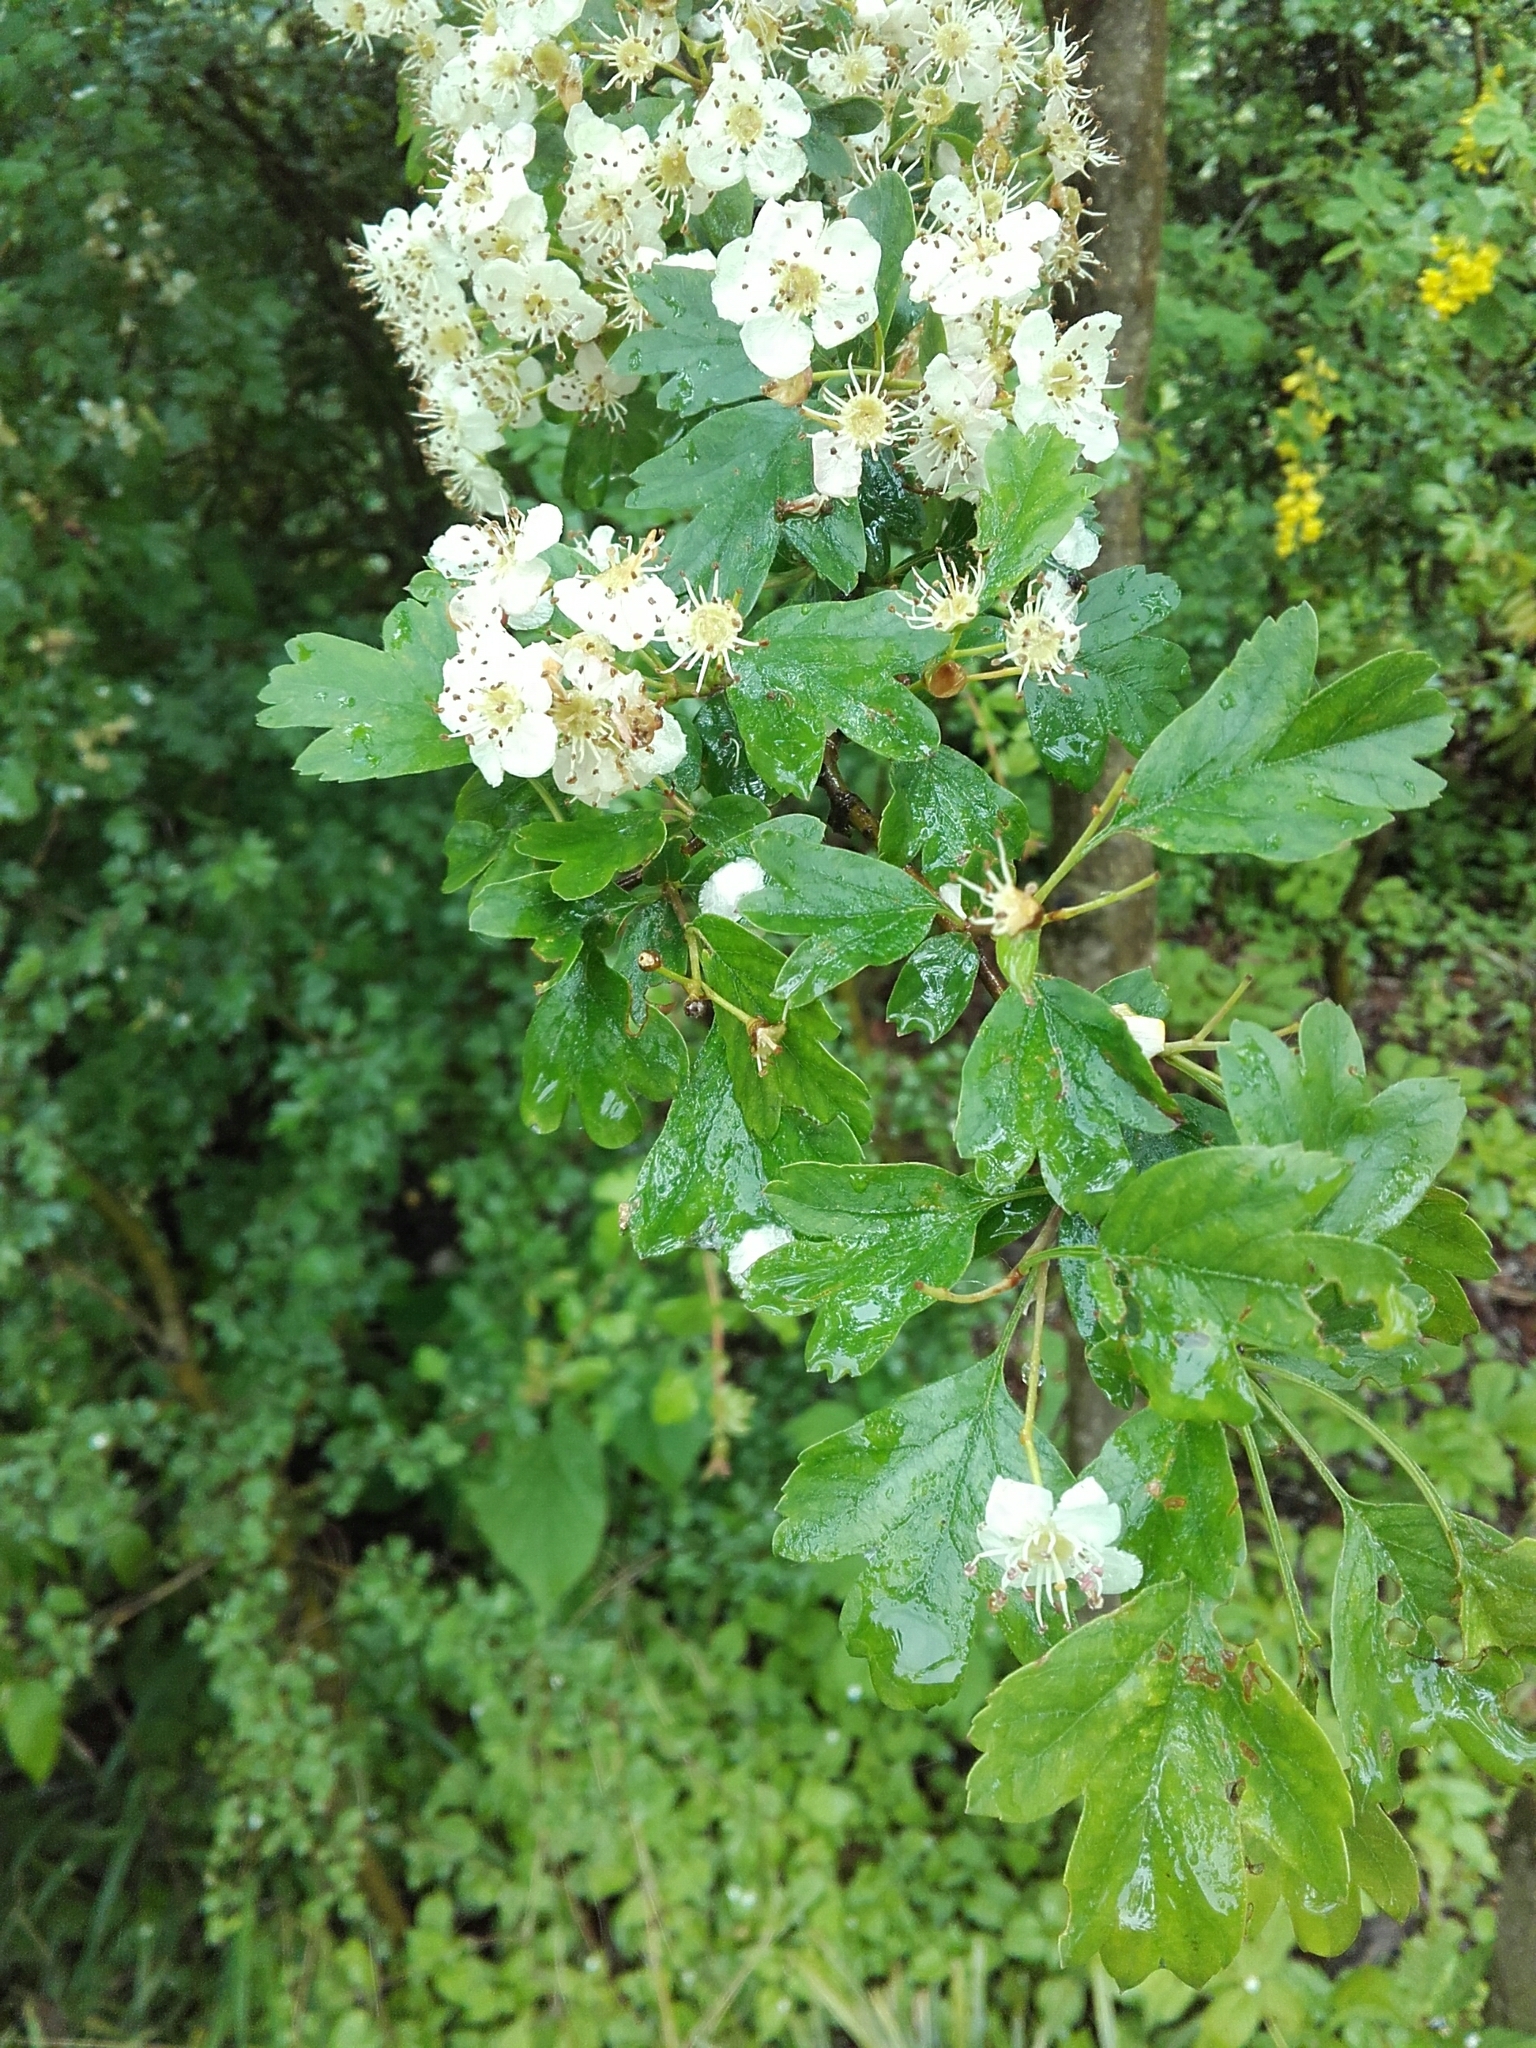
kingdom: Plantae
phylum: Tracheophyta
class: Magnoliopsida
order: Rosales
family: Rosaceae
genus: Crataegus
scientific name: Crataegus monogyna
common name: Hawthorn
